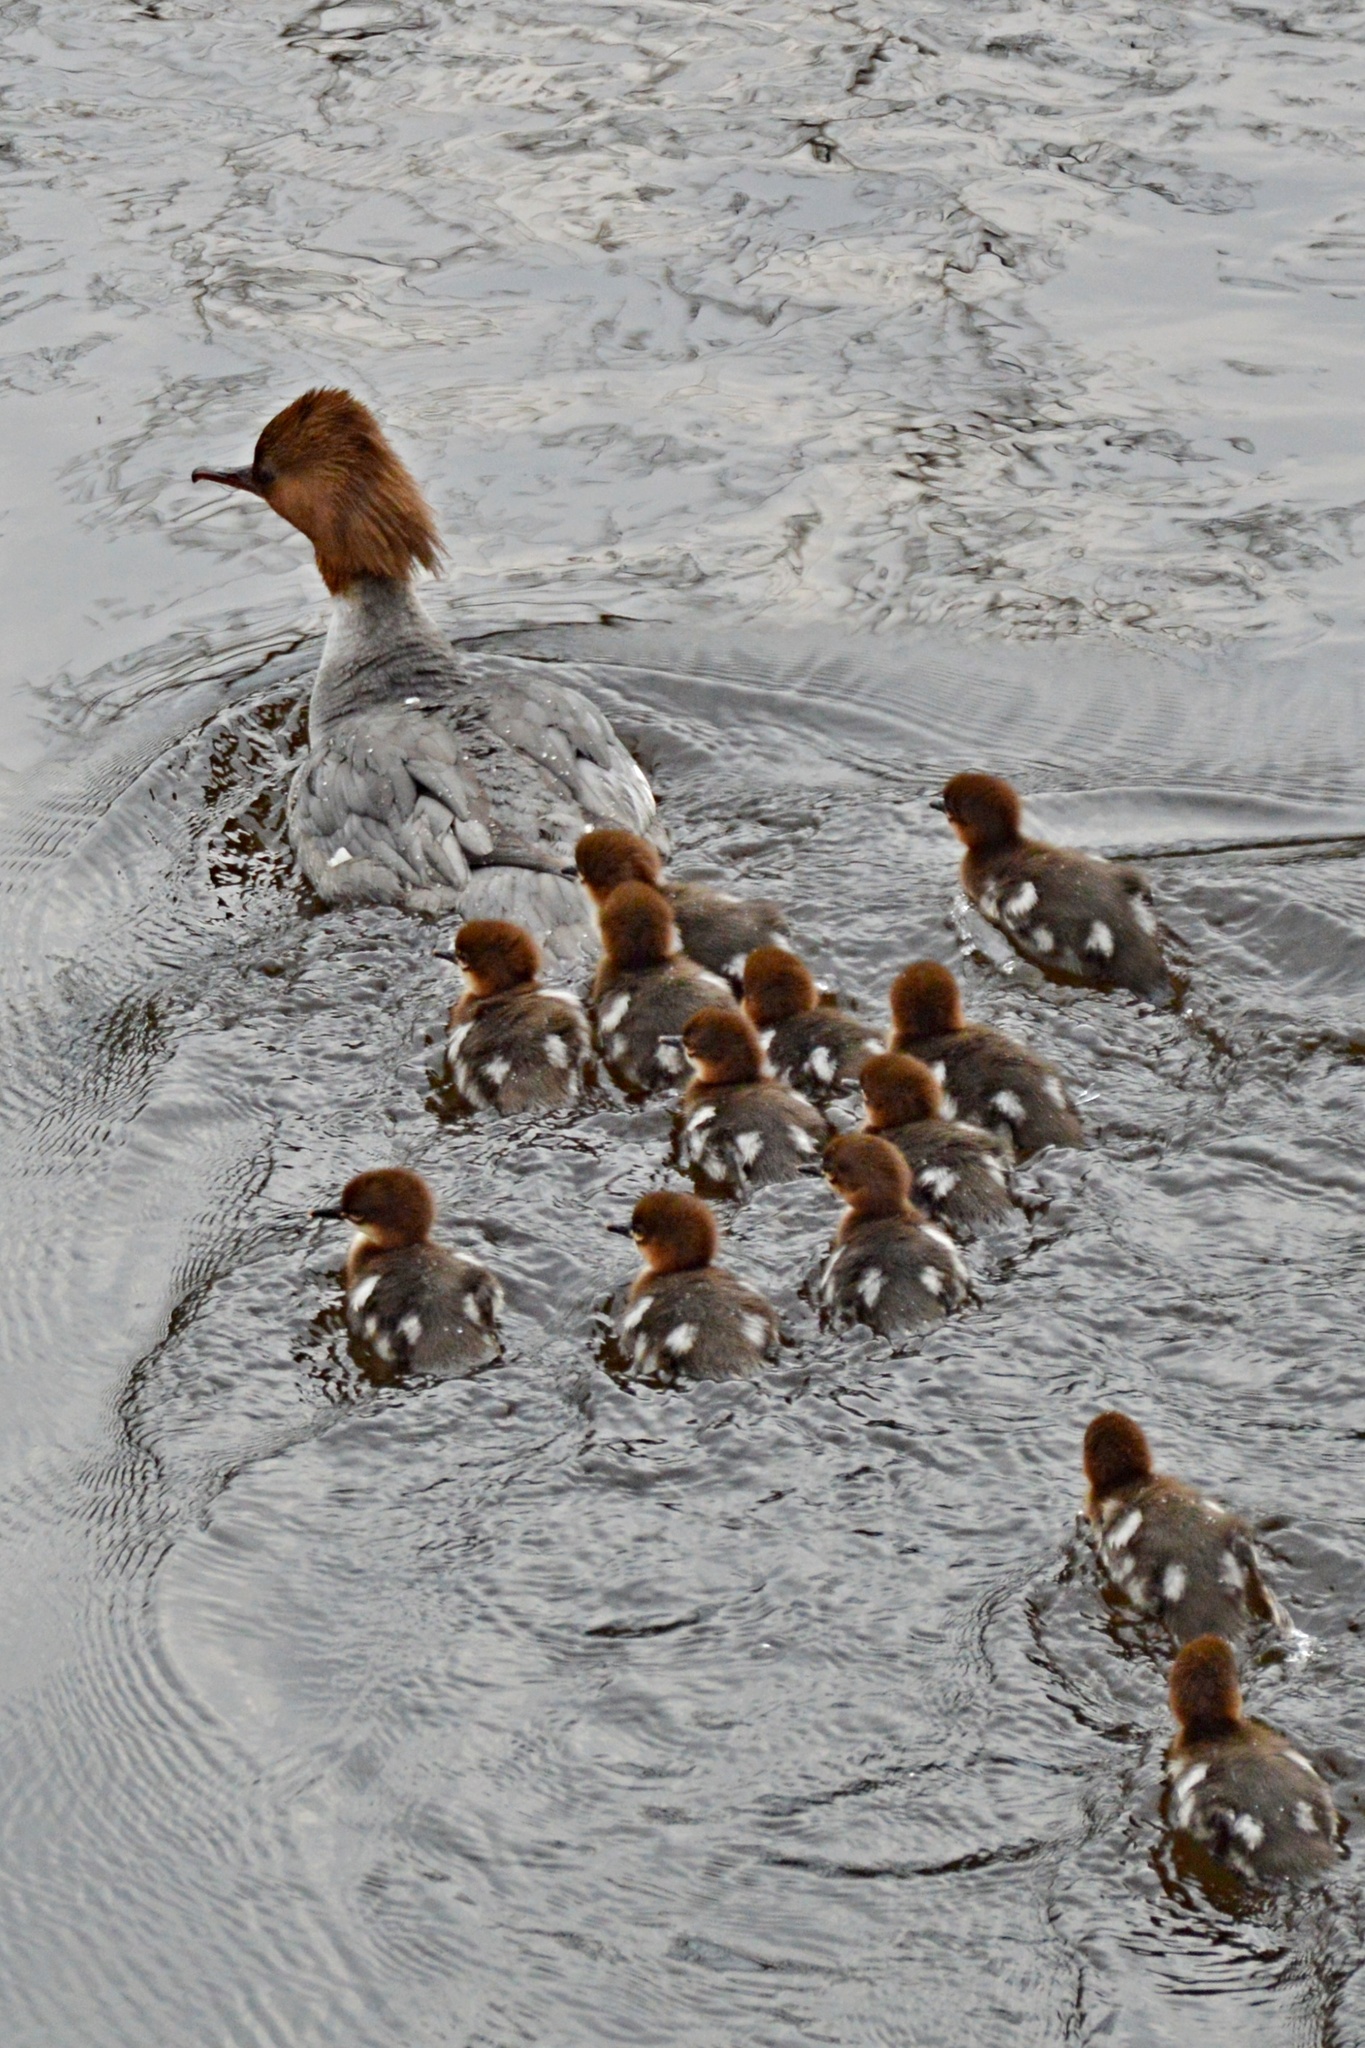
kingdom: Animalia
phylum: Chordata
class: Aves
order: Anseriformes
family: Anatidae
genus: Mergus
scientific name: Mergus merganser
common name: Common merganser
